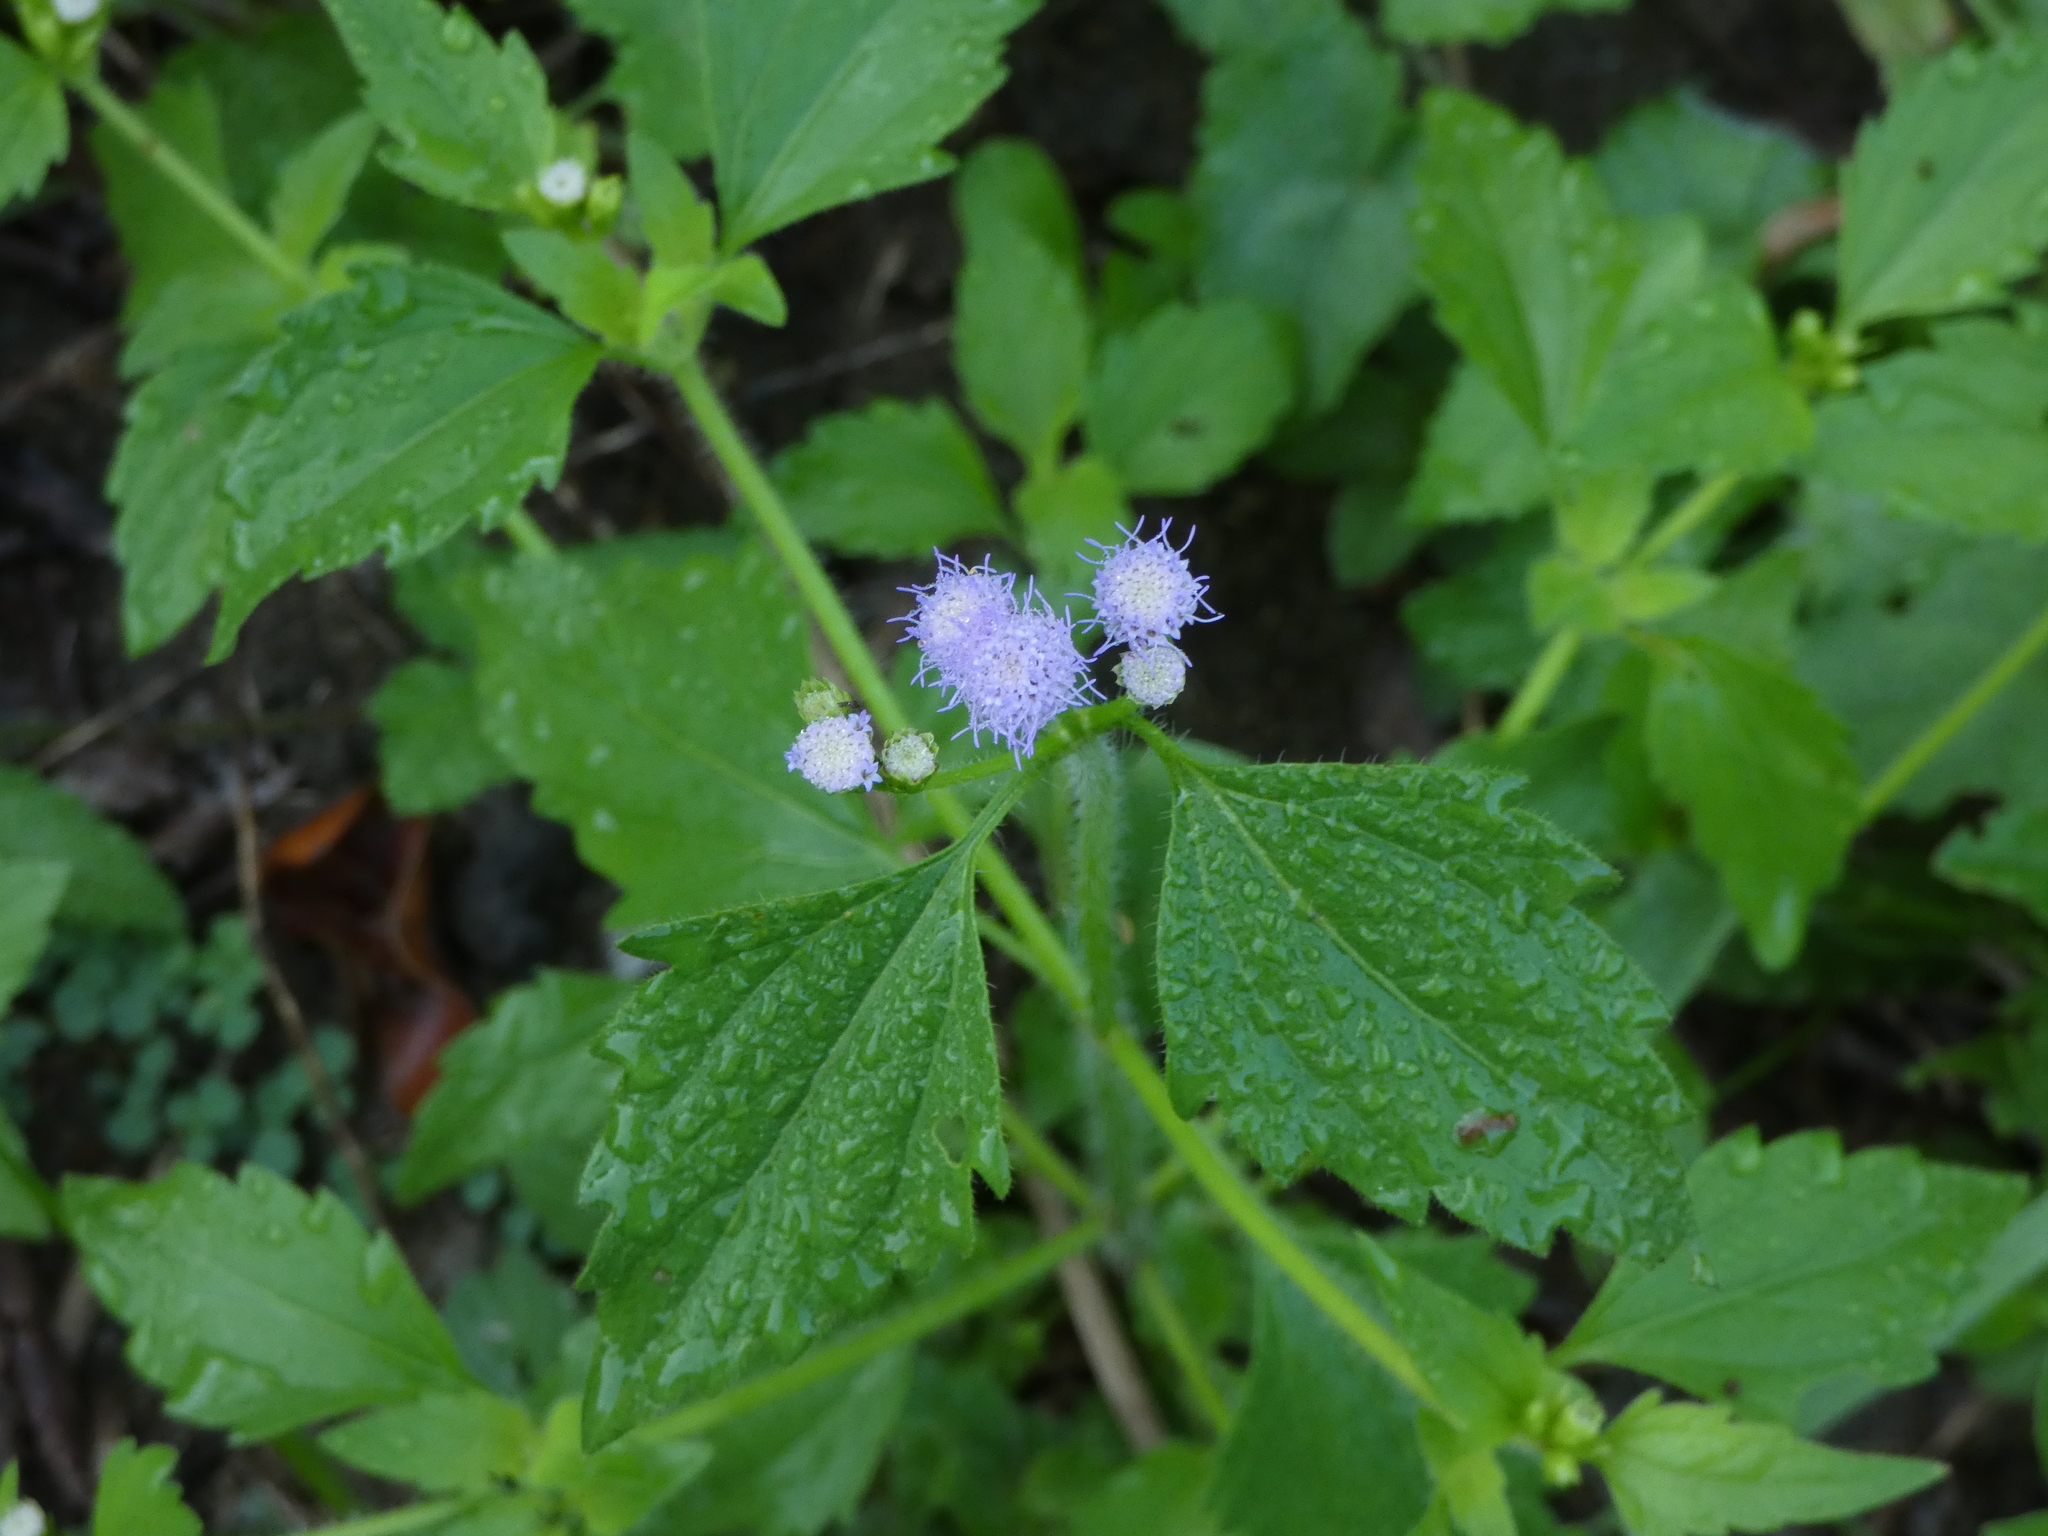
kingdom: Plantae
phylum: Tracheophyta
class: Magnoliopsida
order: Asterales
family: Asteraceae
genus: Praxelis
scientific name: Praxelis clematidea
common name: Praxelis
